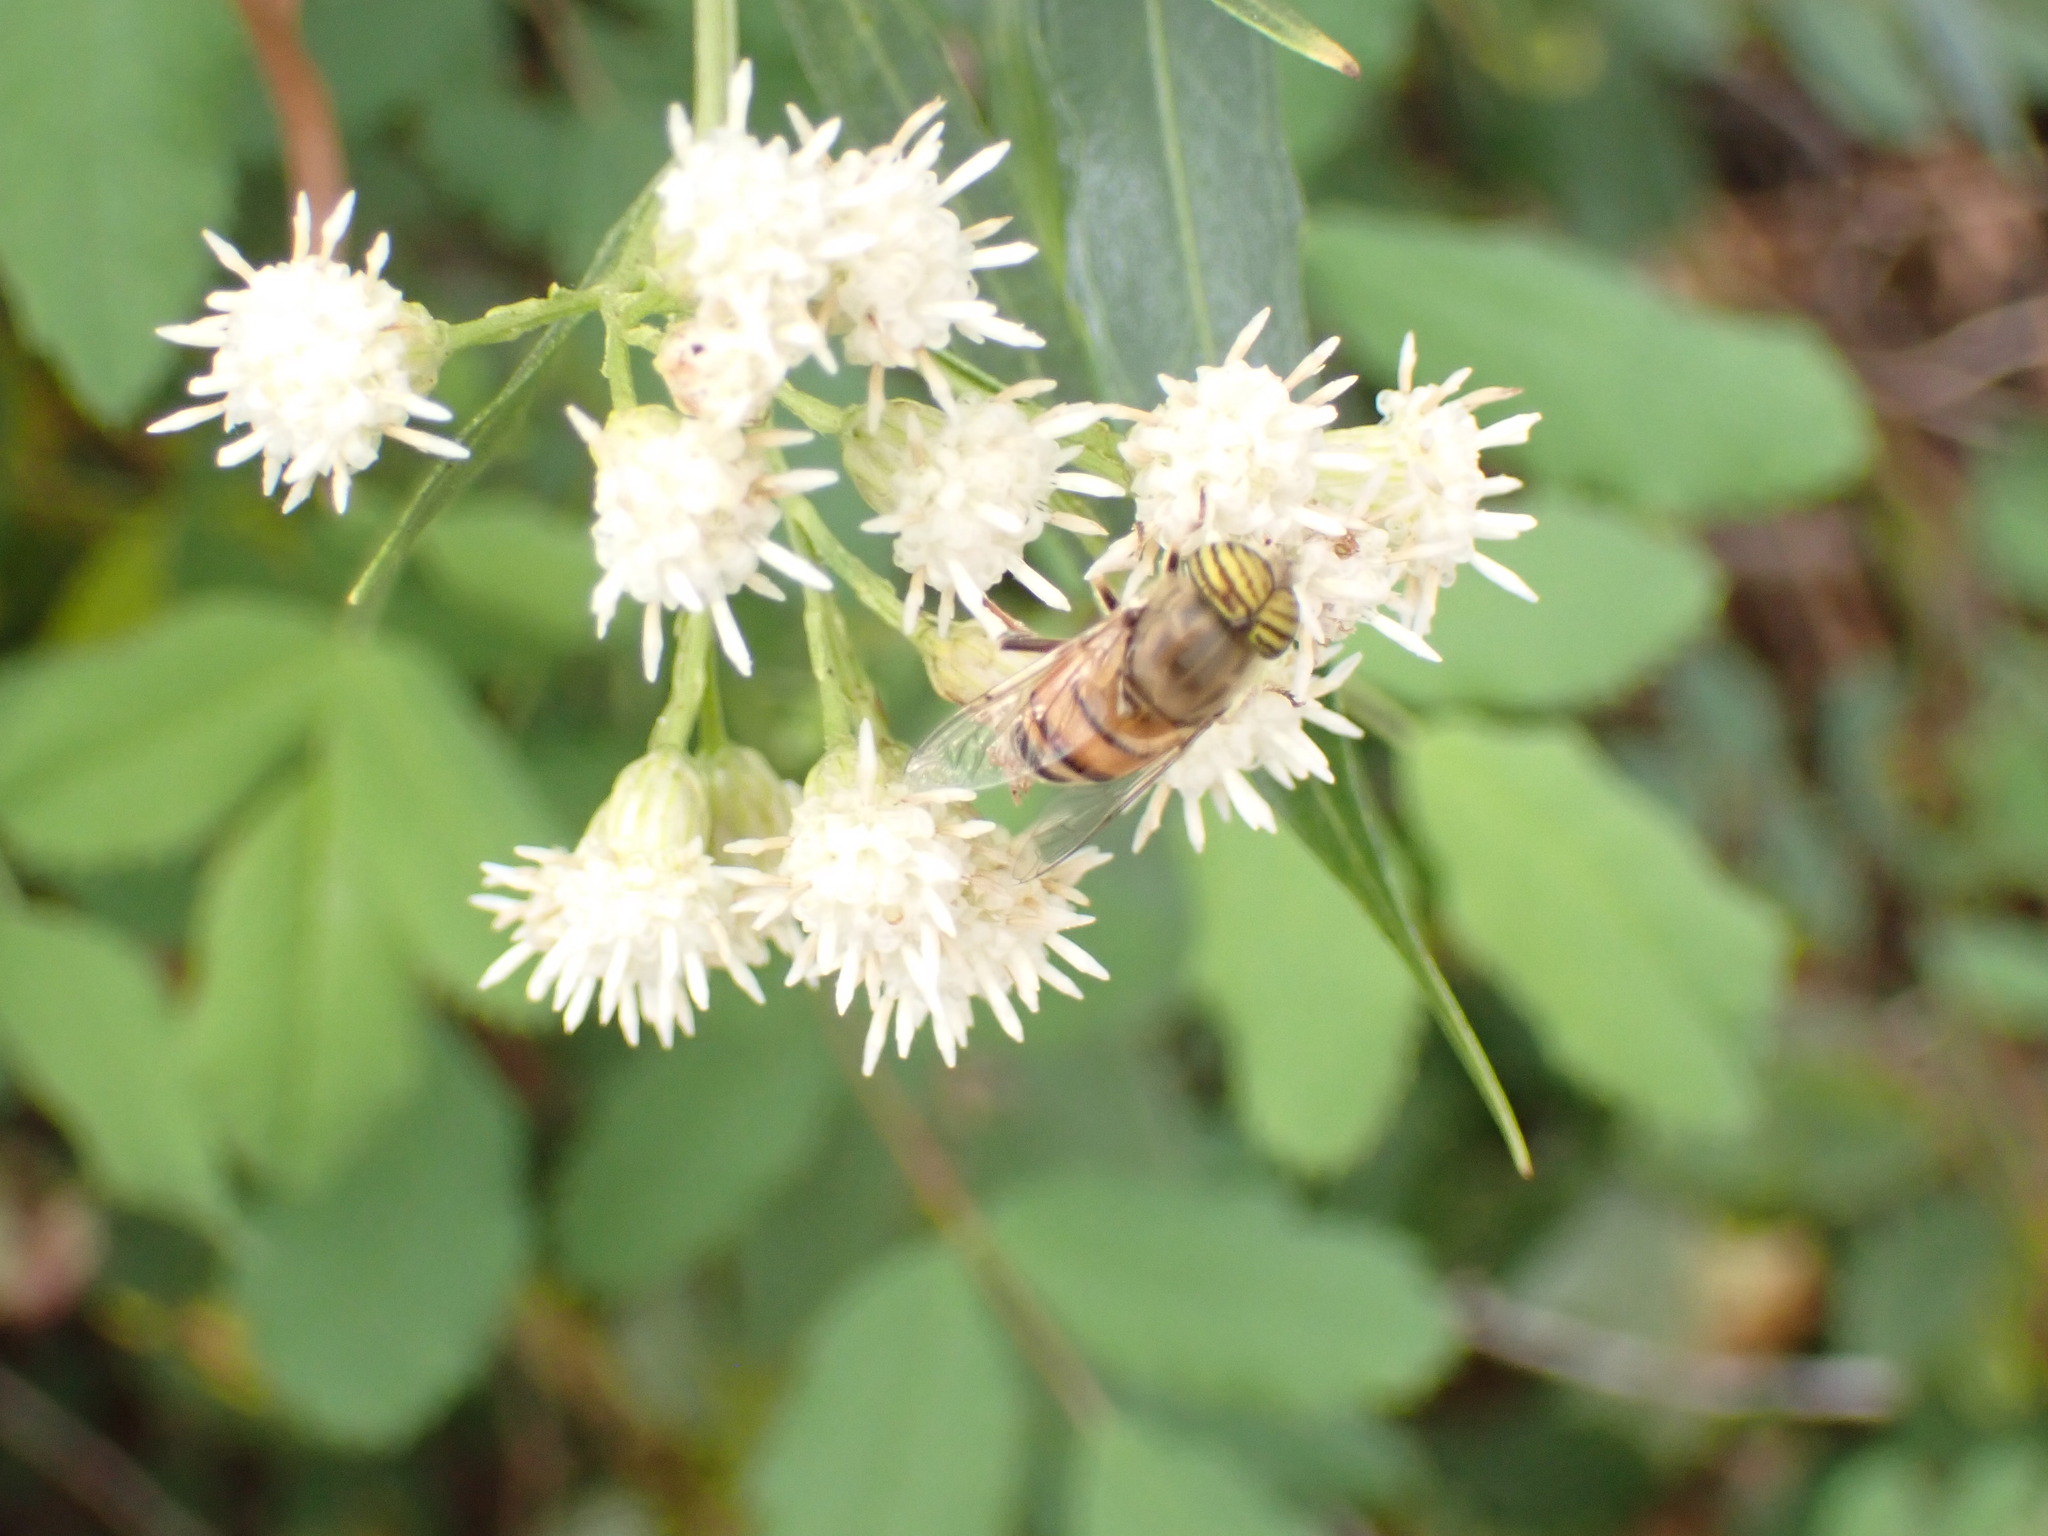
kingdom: Animalia
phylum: Arthropoda
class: Insecta
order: Diptera
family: Syrphidae
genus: Eristalinus
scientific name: Eristalinus taeniops
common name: Syrphid fly
